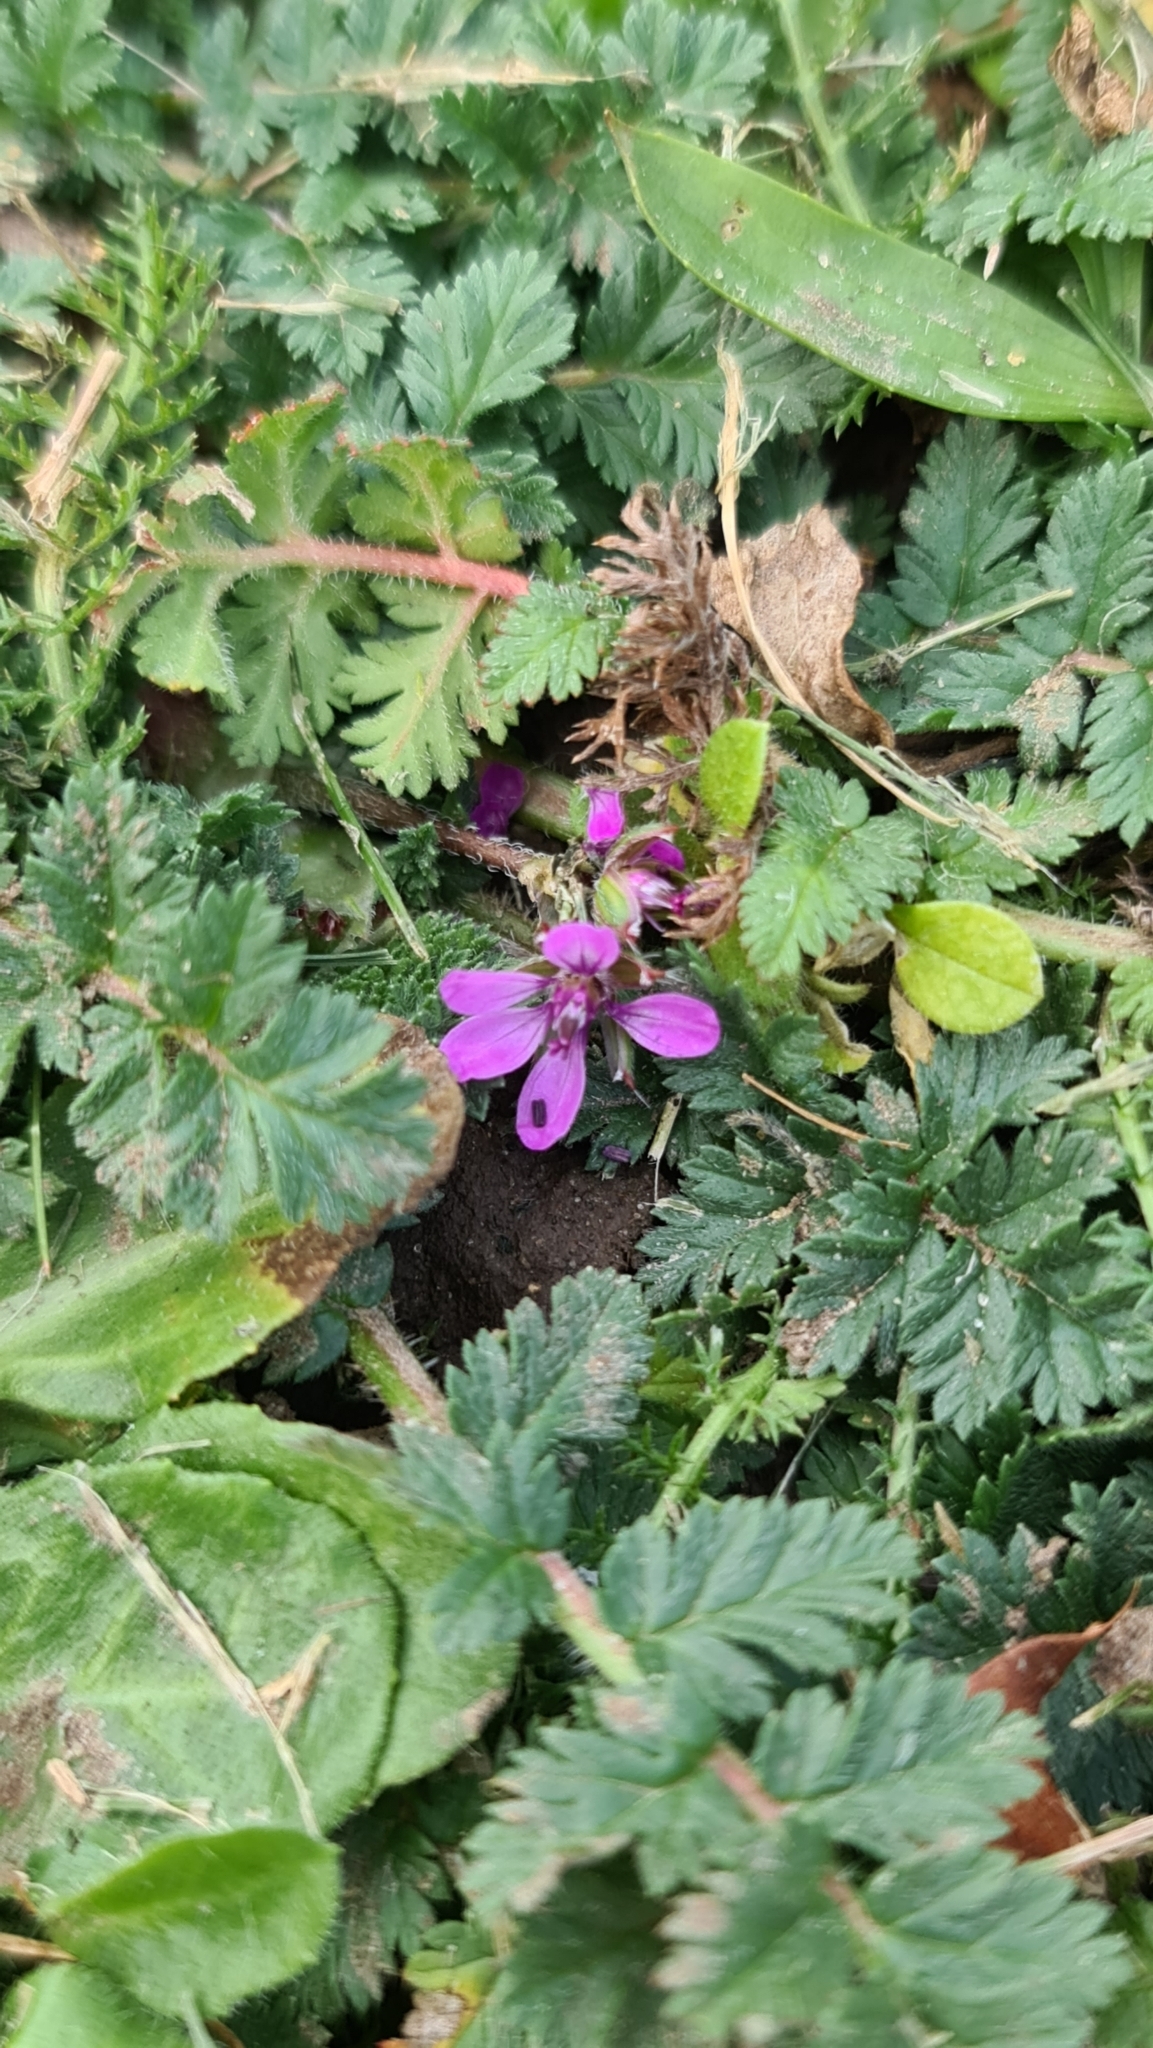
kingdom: Plantae
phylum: Tracheophyta
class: Magnoliopsida
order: Geraniales
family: Geraniaceae
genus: Erodium
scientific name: Erodium cicutarium
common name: Common stork's-bill
